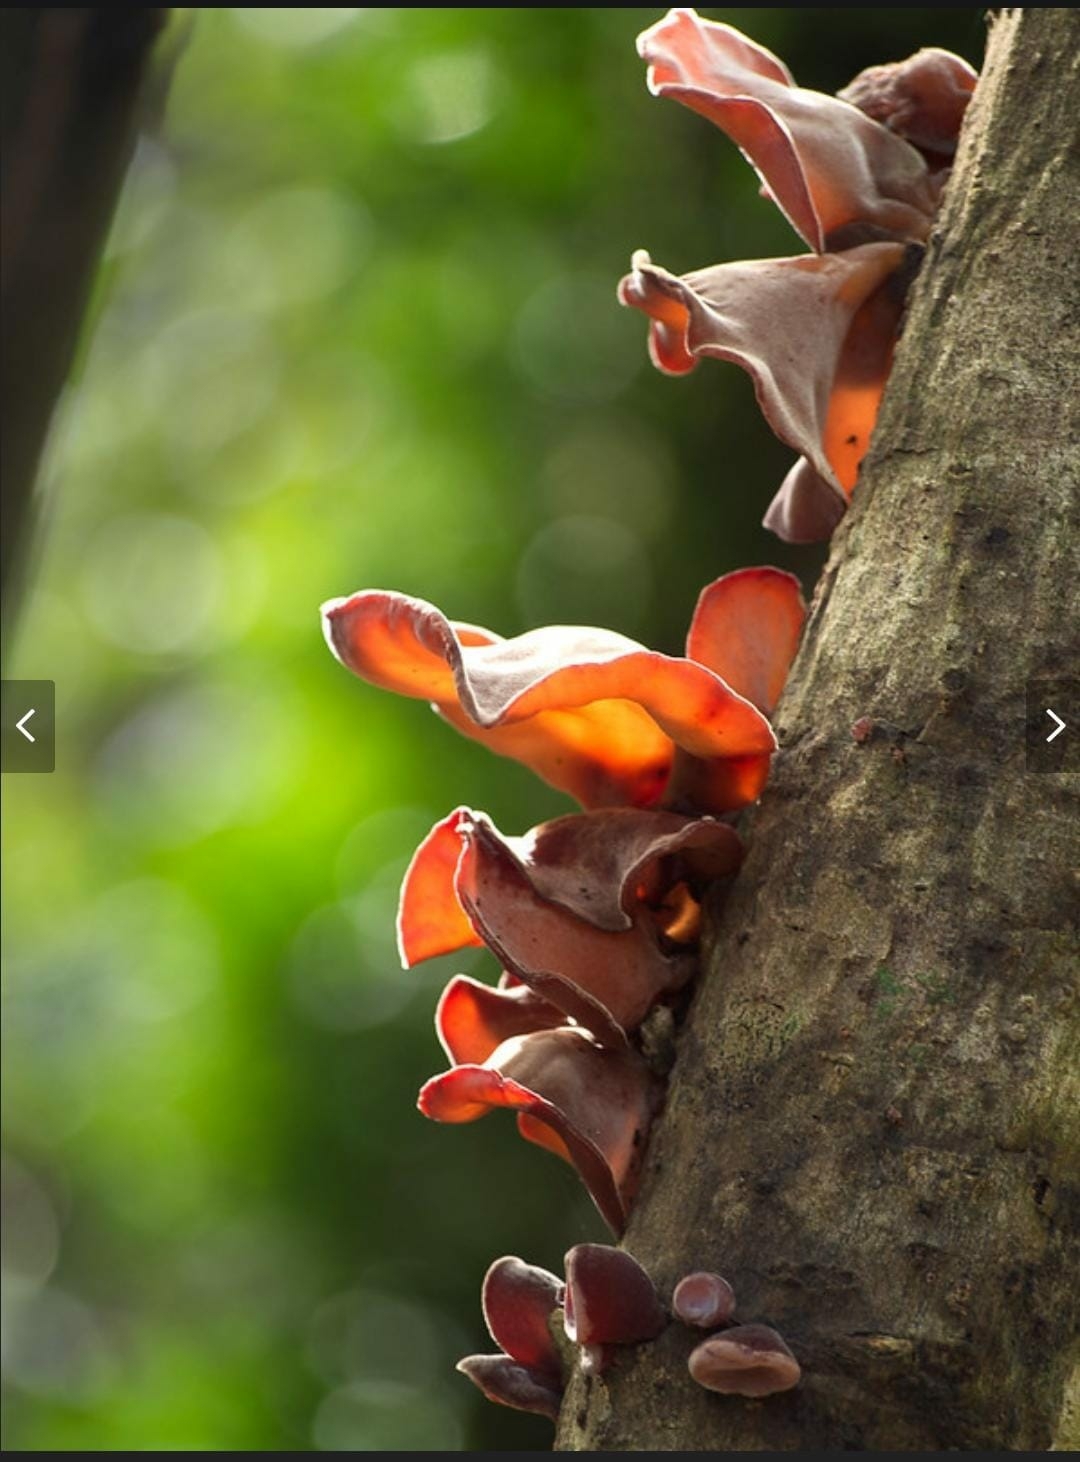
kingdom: Fungi
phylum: Basidiomycota
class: Agaricomycetes
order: Auriculariales
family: Auriculariaceae
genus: Auricularia
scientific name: Auricularia cornea
